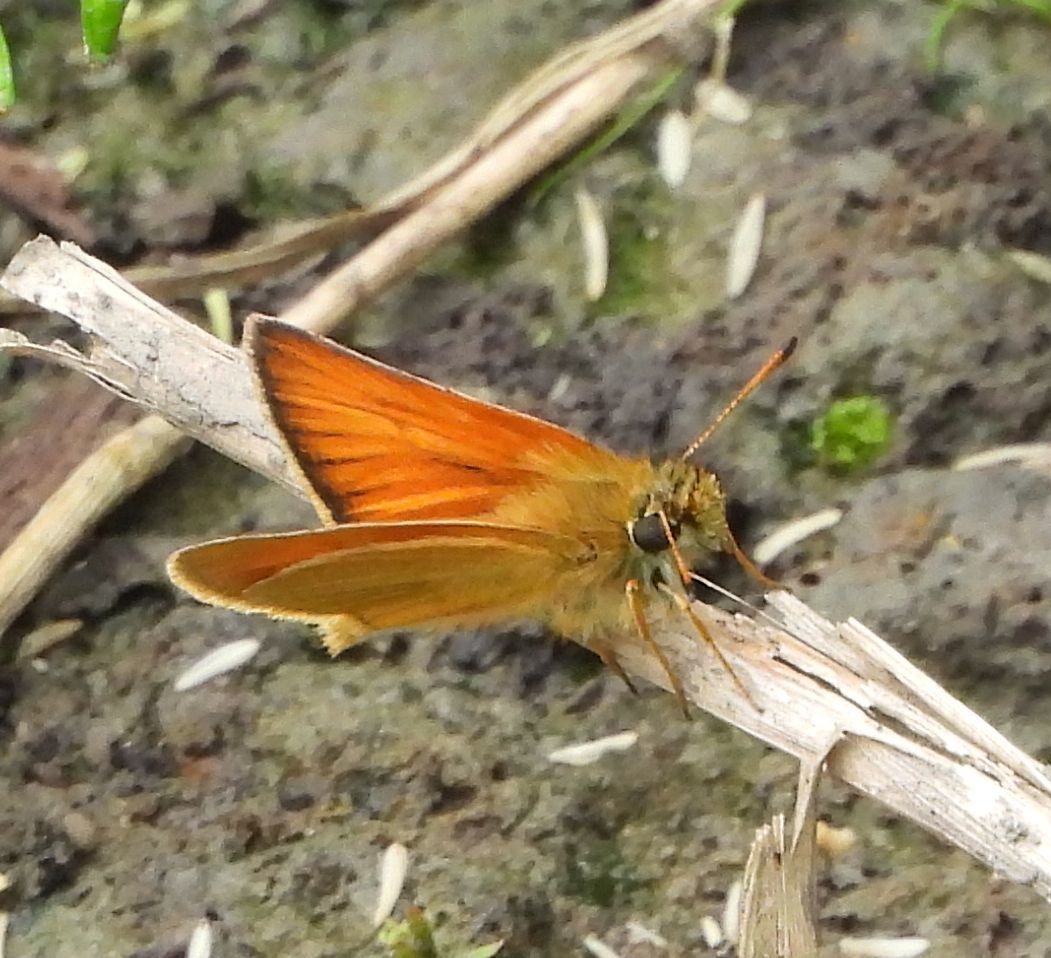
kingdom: Animalia
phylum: Arthropoda
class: Insecta
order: Lepidoptera
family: Hesperiidae
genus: Thymelicus
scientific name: Thymelicus lineola
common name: Essex skipper
